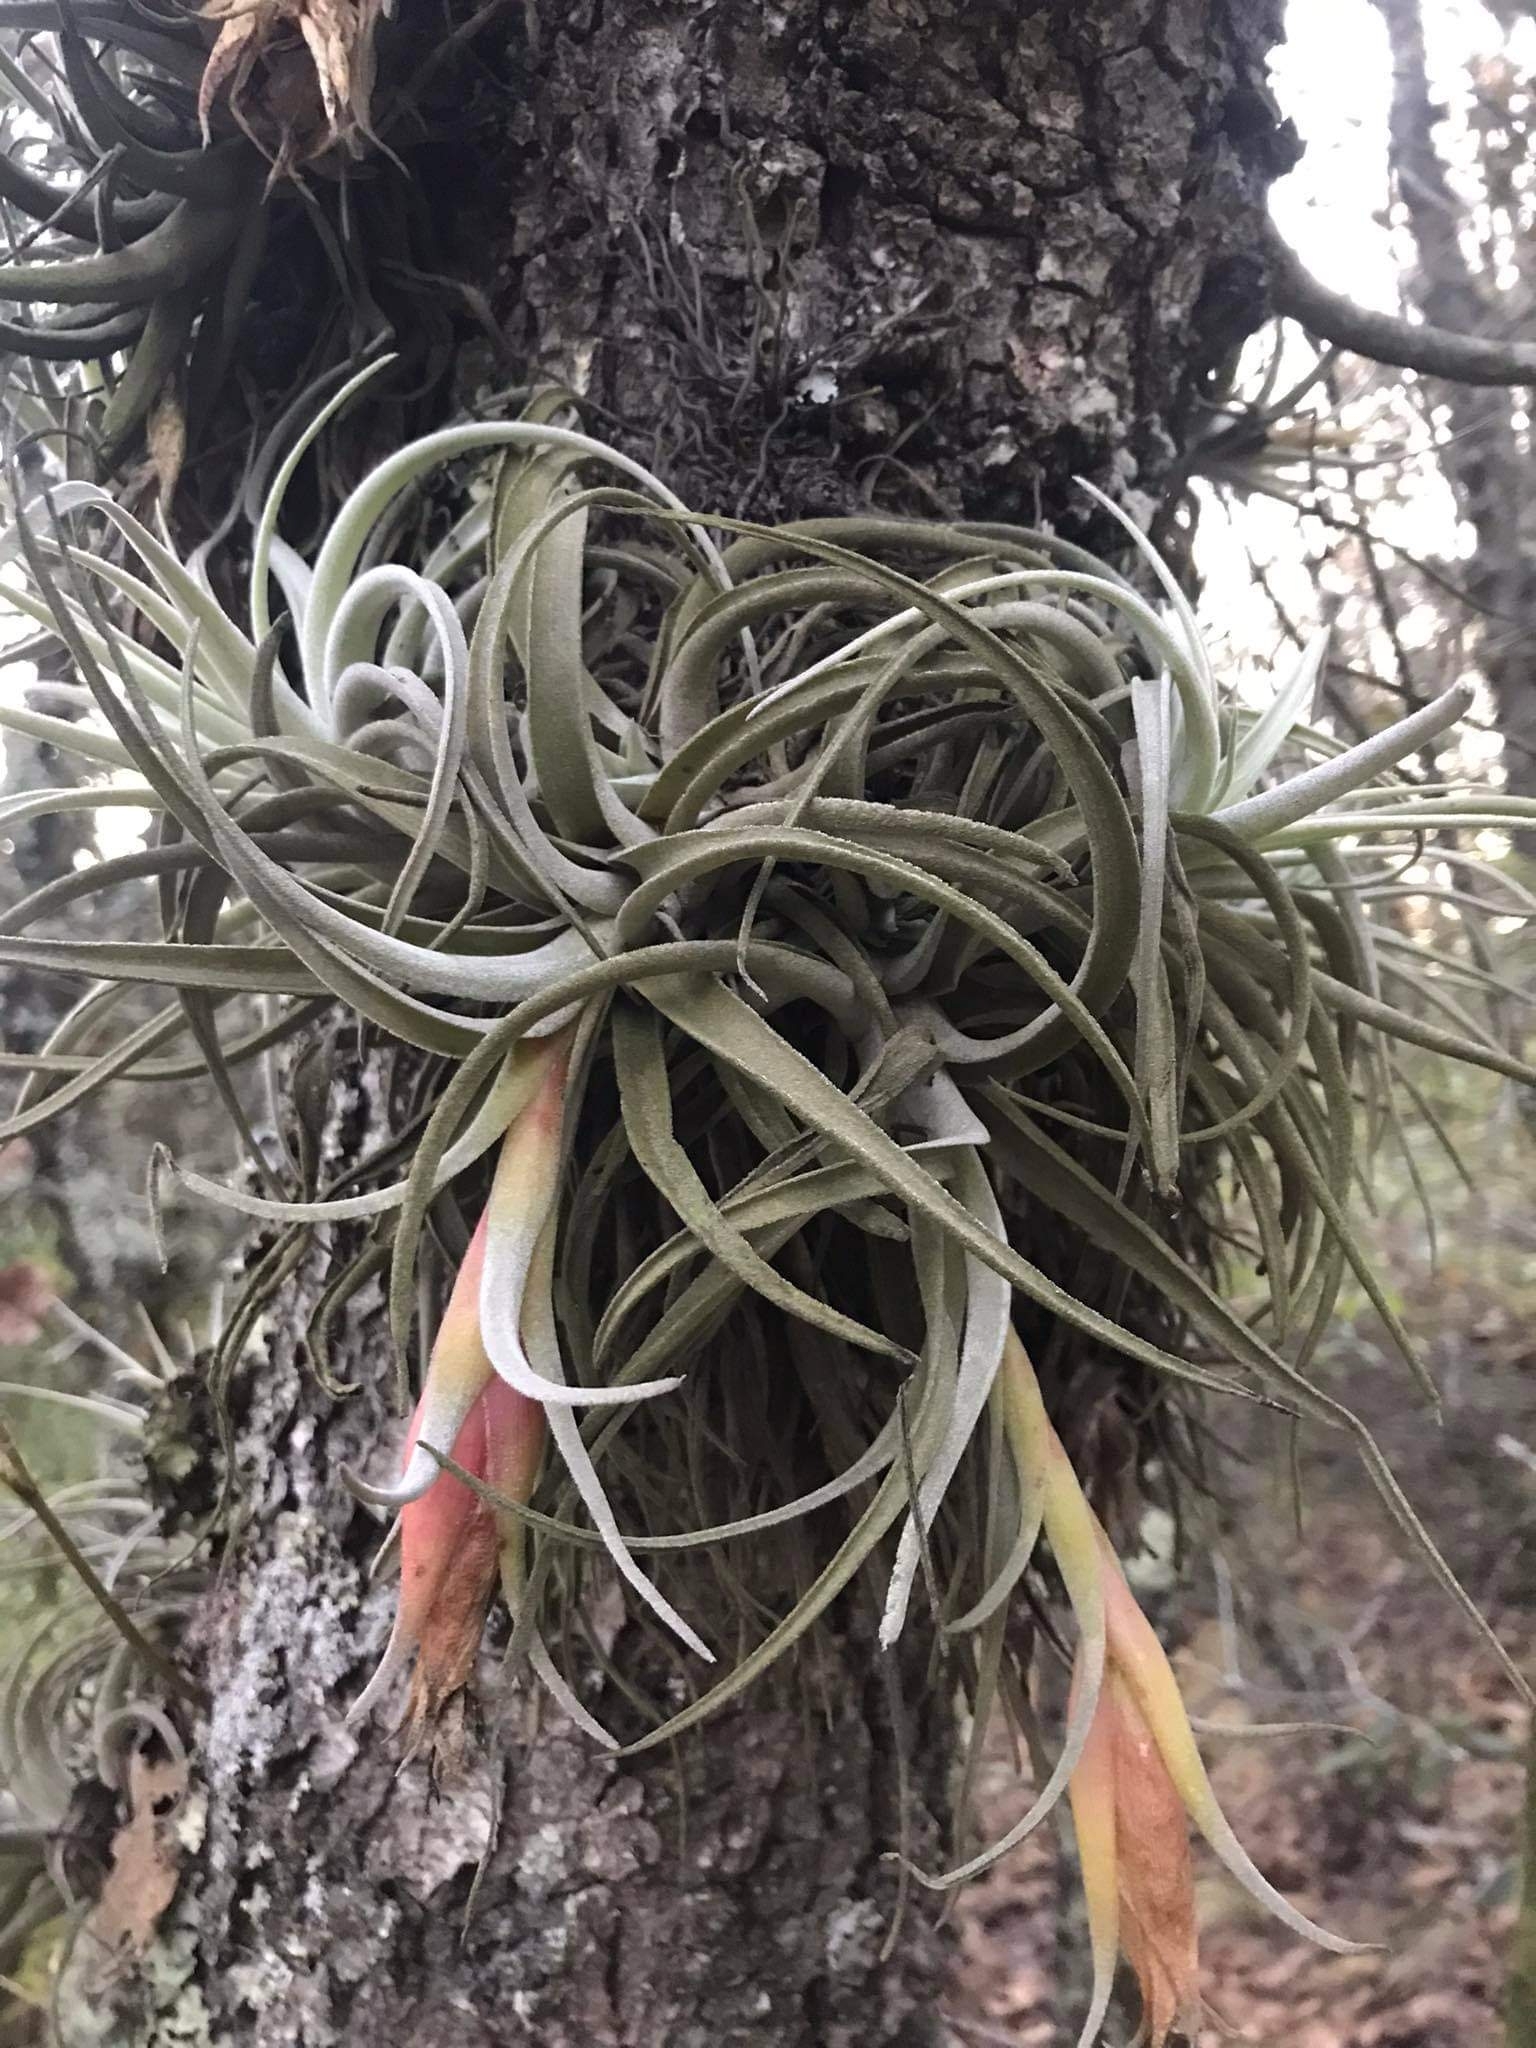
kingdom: Plantae
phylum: Tracheophyta
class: Liliopsida
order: Poales
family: Bromeliaceae
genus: Tillandsia
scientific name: Tillandsia erubescens
